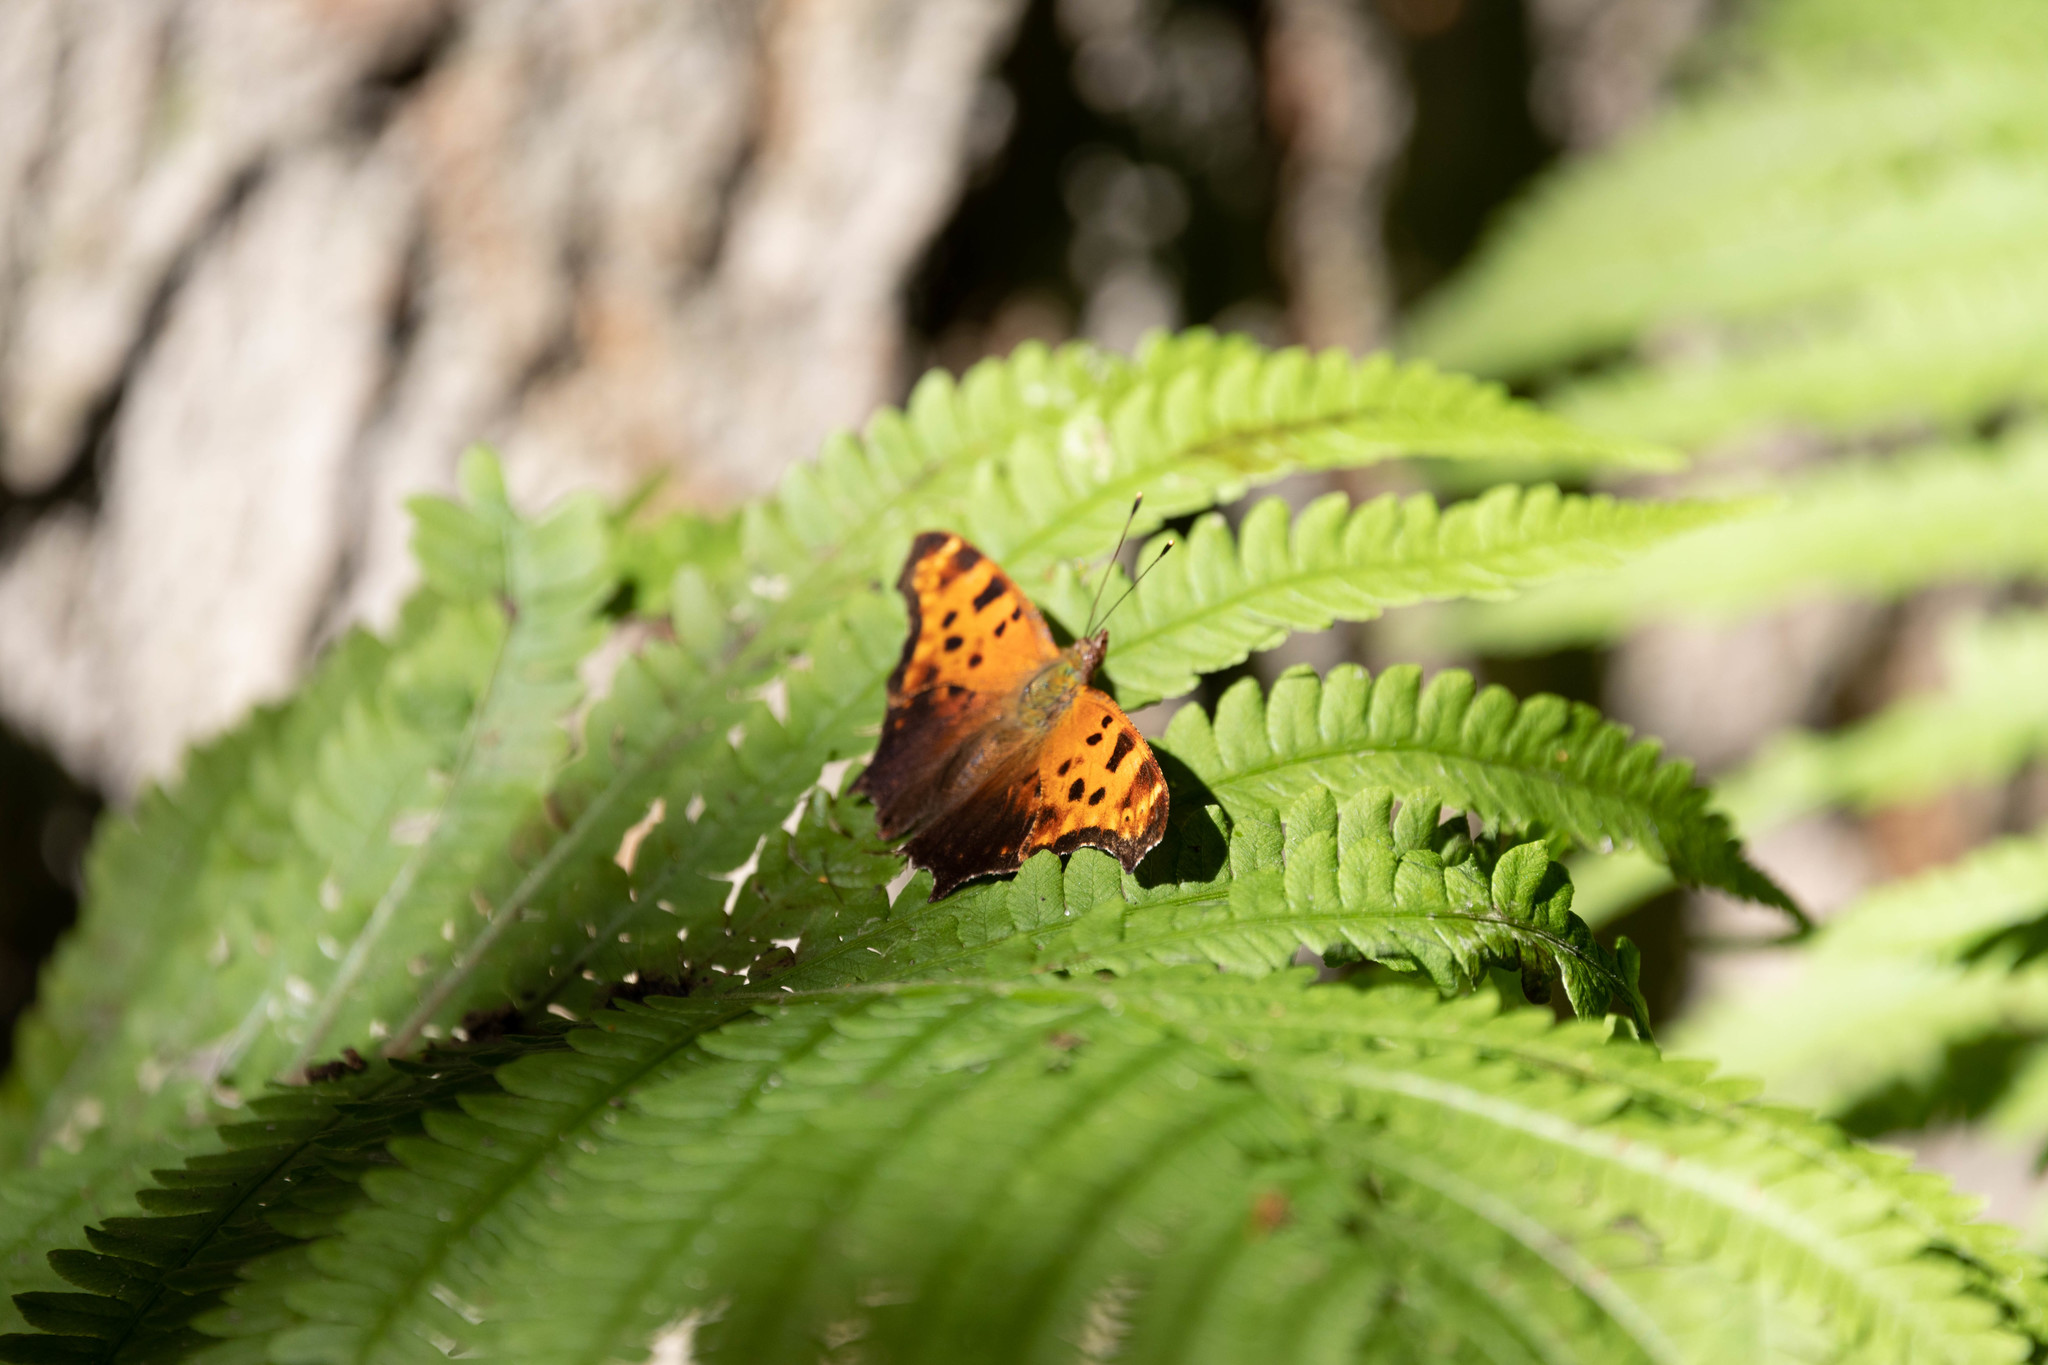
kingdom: Animalia
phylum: Arthropoda
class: Insecta
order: Lepidoptera
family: Nymphalidae
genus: Polygonia
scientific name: Polygonia comma
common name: Eastern comma
